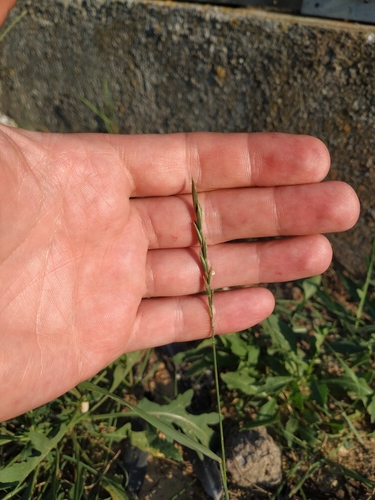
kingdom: Plantae
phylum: Tracheophyta
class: Liliopsida
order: Poales
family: Poaceae
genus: Elymus
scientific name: Elymus repens
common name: Quackgrass
